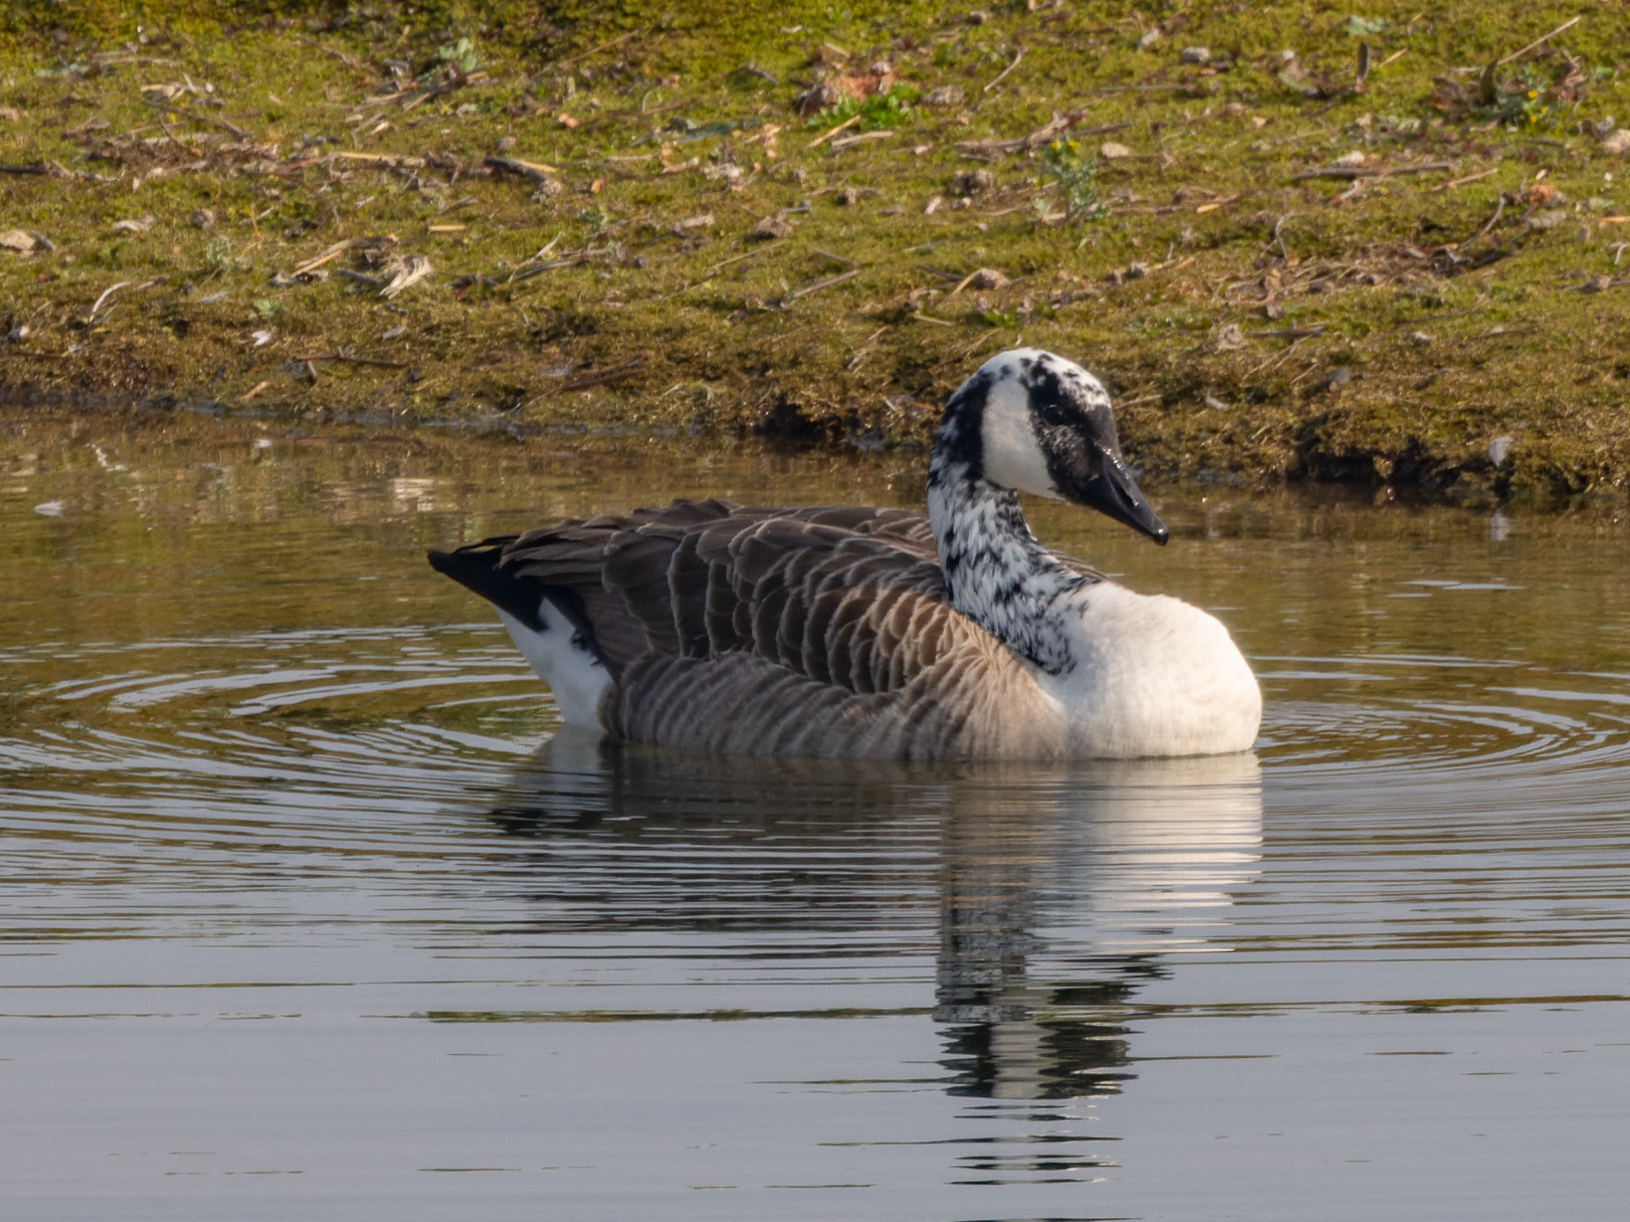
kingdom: Animalia
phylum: Chordata
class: Aves
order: Anseriformes
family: Anatidae
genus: Branta
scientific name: Branta canadensis
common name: Canada goose
